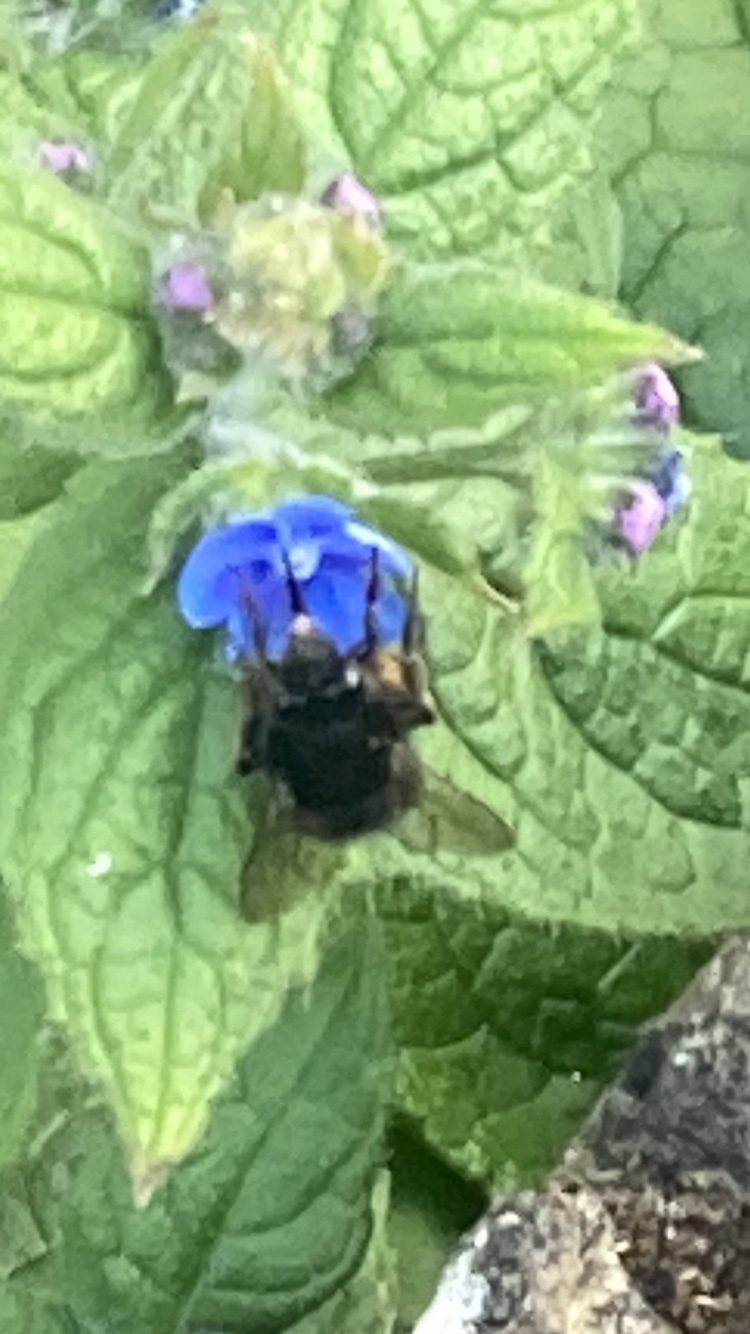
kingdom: Animalia
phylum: Arthropoda
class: Insecta
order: Hymenoptera
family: Apidae
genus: Anthophora
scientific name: Anthophora plumipes
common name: Hairy-footed flower bee
